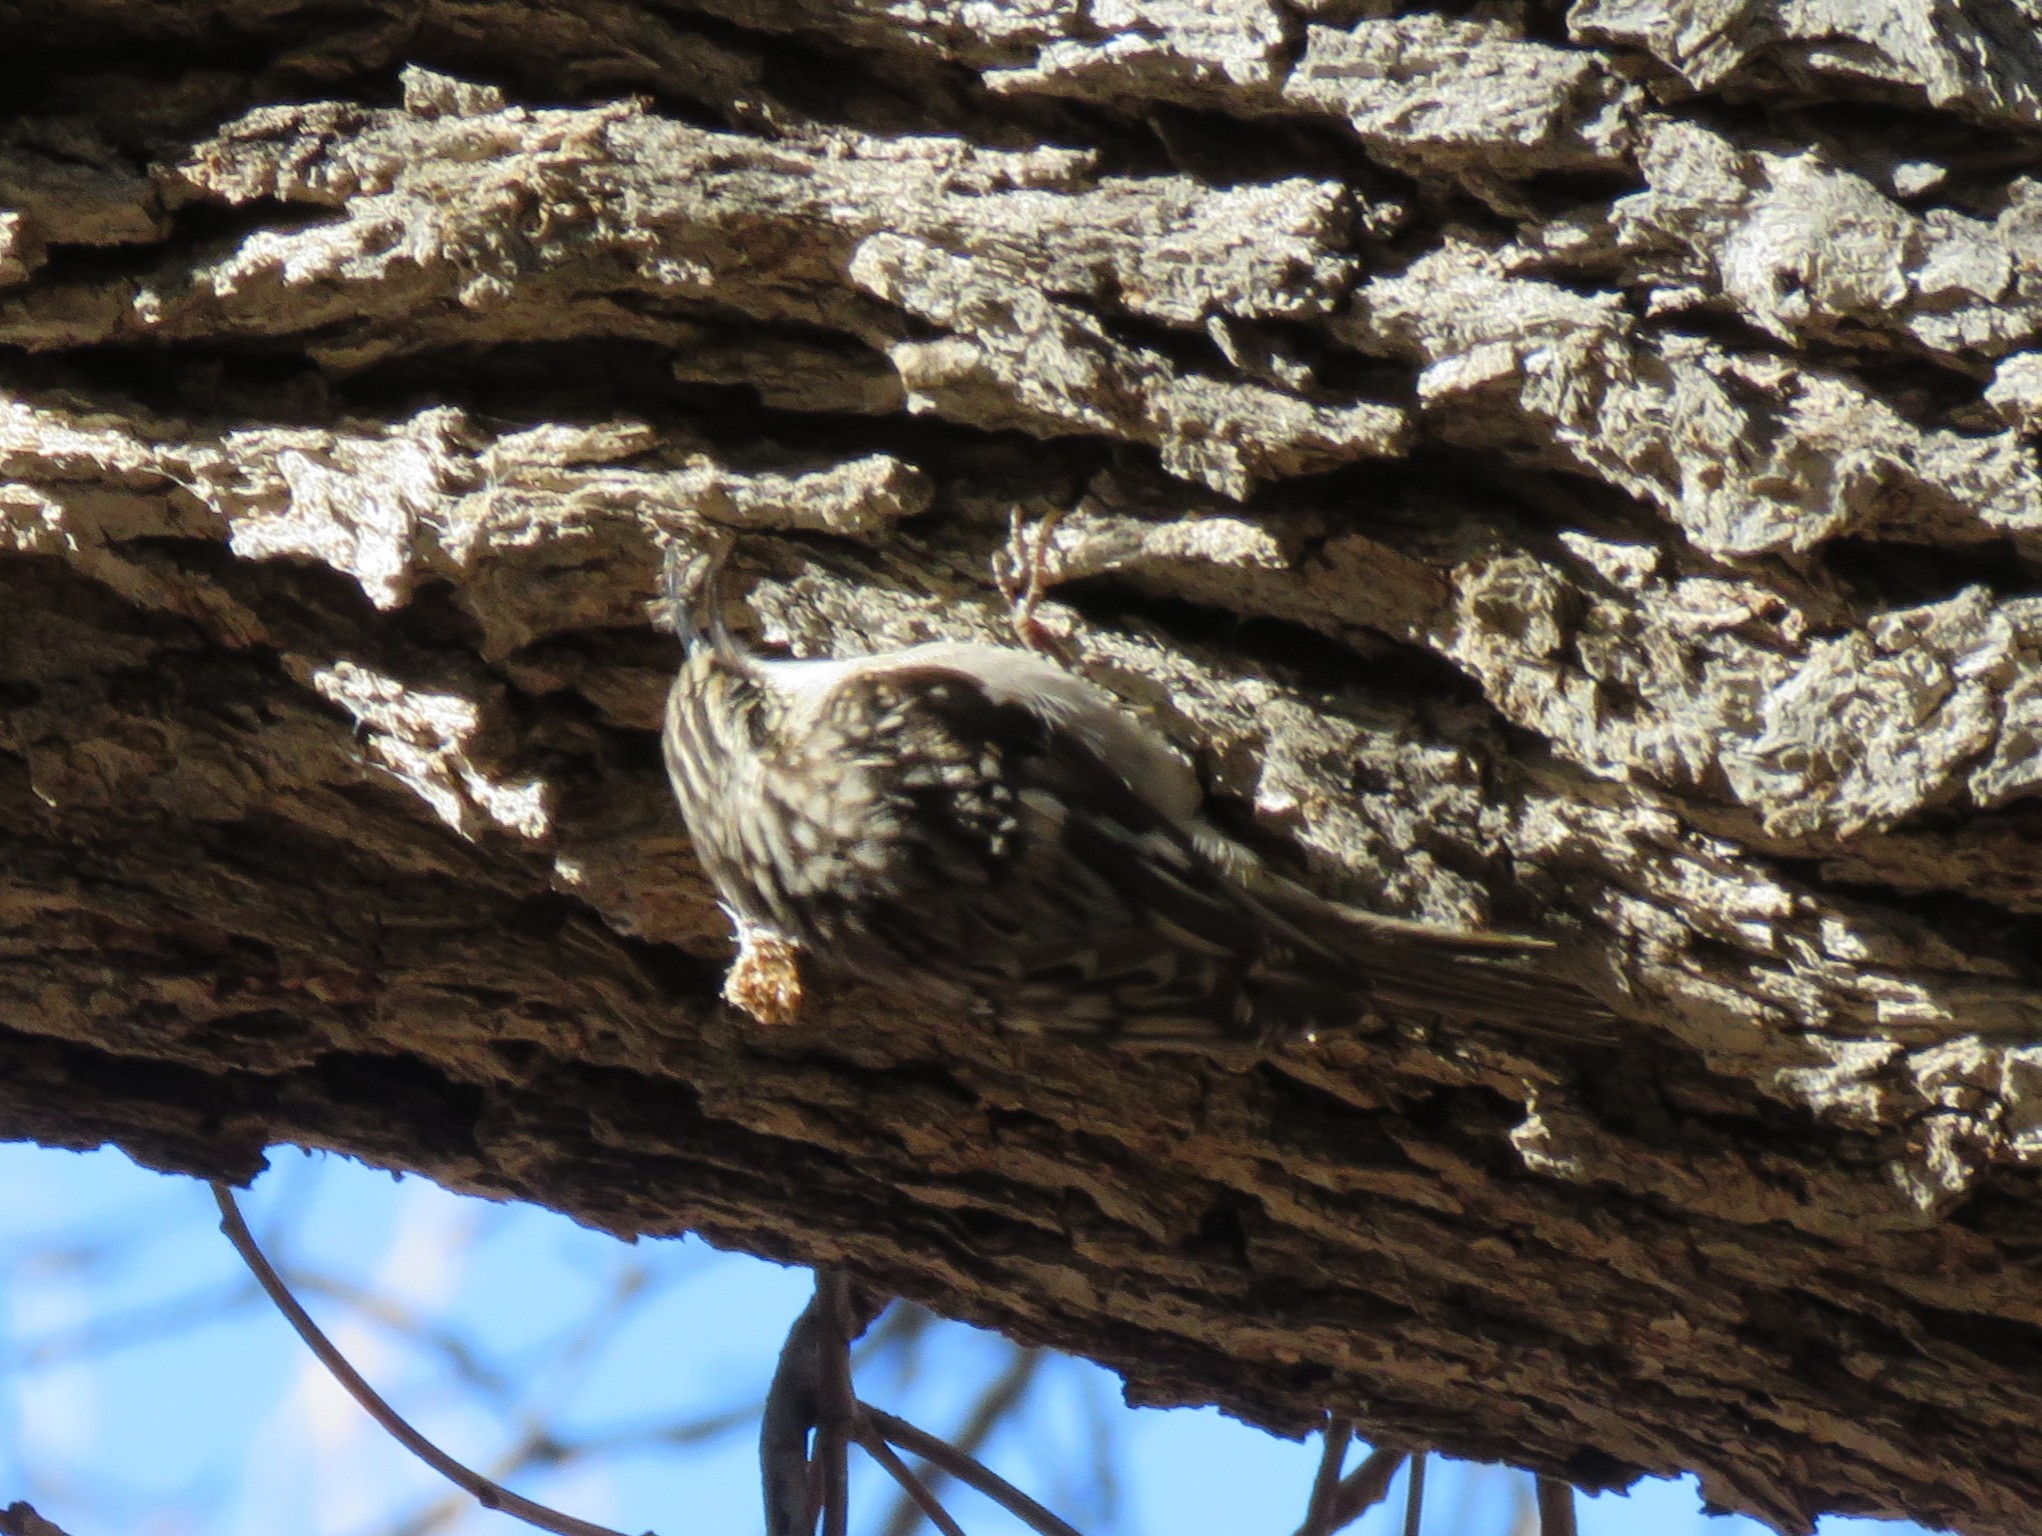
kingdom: Animalia
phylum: Chordata
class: Aves
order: Passeriformes
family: Certhiidae
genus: Certhia
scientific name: Certhia americana
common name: Brown creeper
